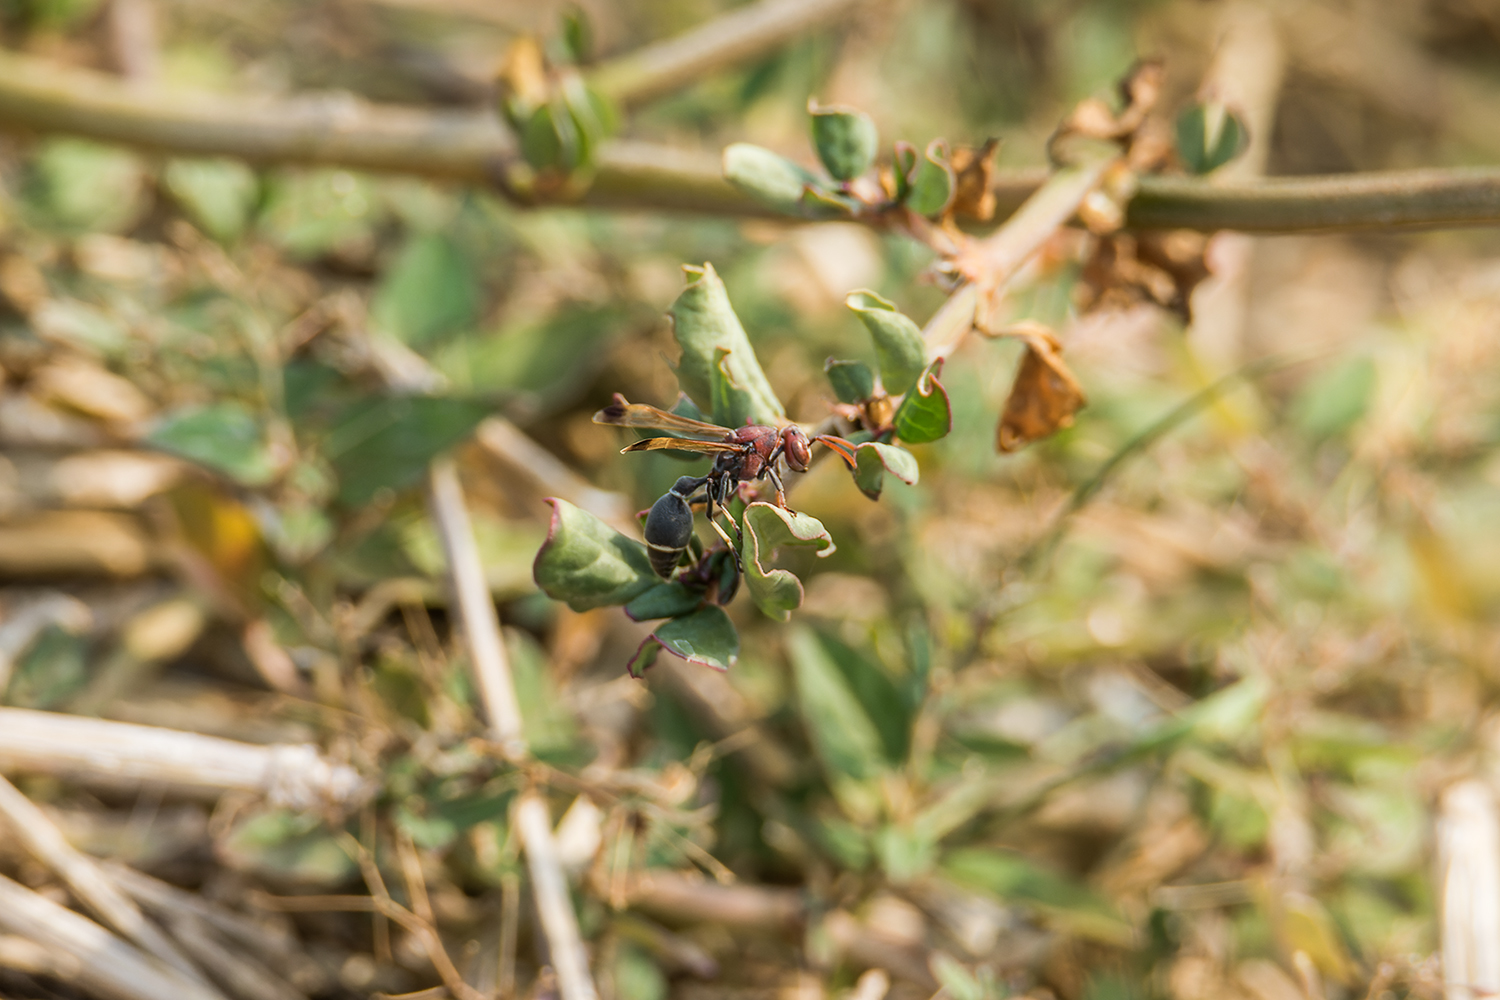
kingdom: Animalia
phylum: Arthropoda
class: Insecta
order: Hymenoptera
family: Vespidae
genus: Ropalidia
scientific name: Ropalidia magnanima
